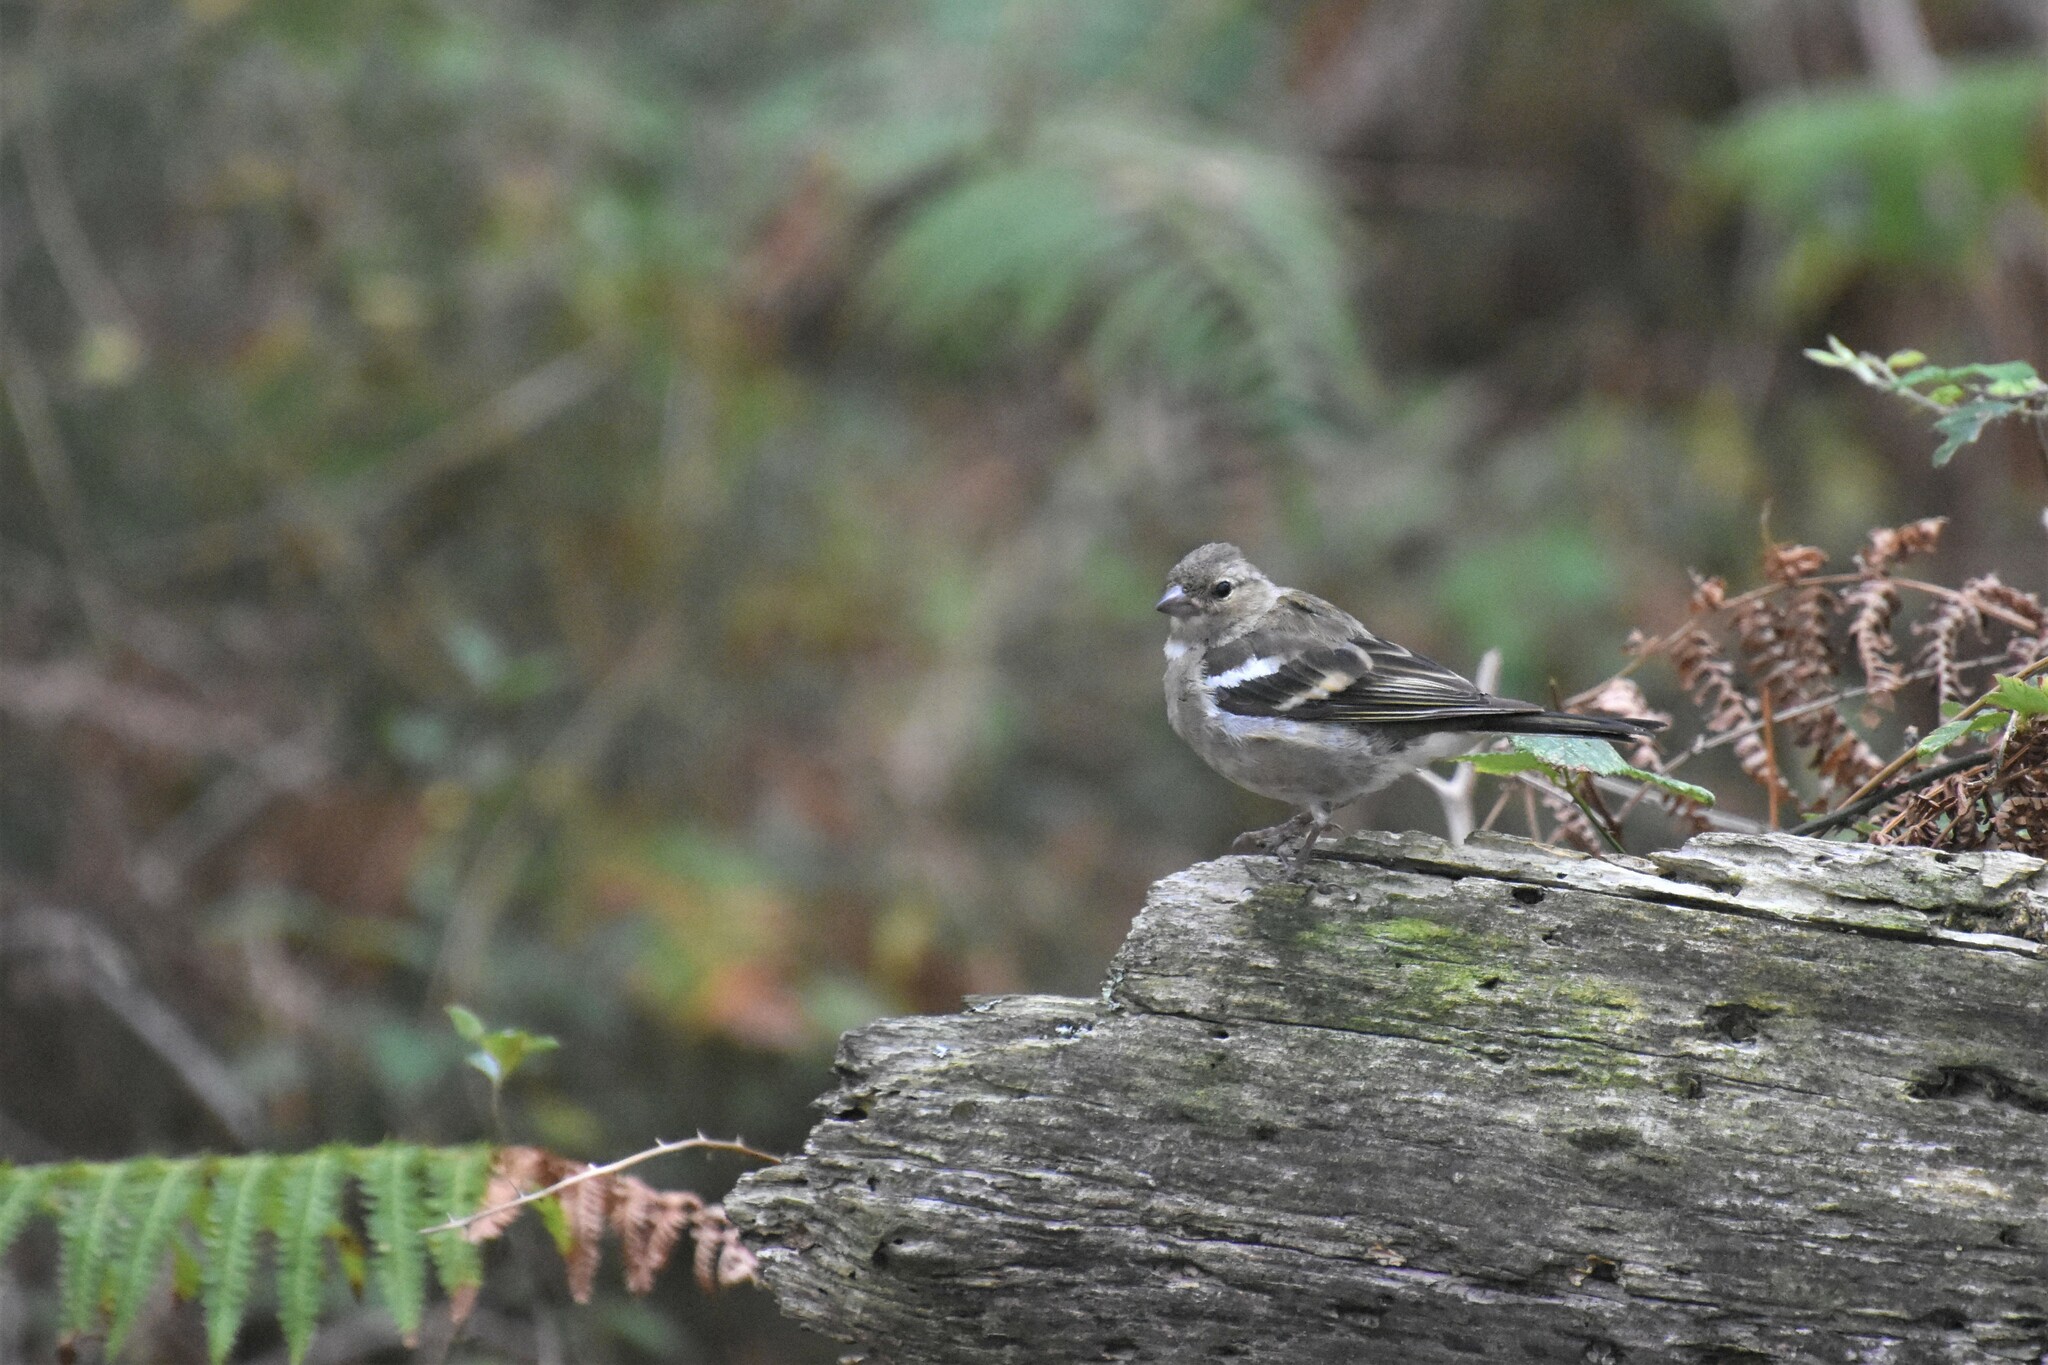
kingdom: Animalia
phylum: Chordata
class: Aves
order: Passeriformes
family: Fringillidae
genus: Fringilla
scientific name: Fringilla coelebs
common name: Common chaffinch
